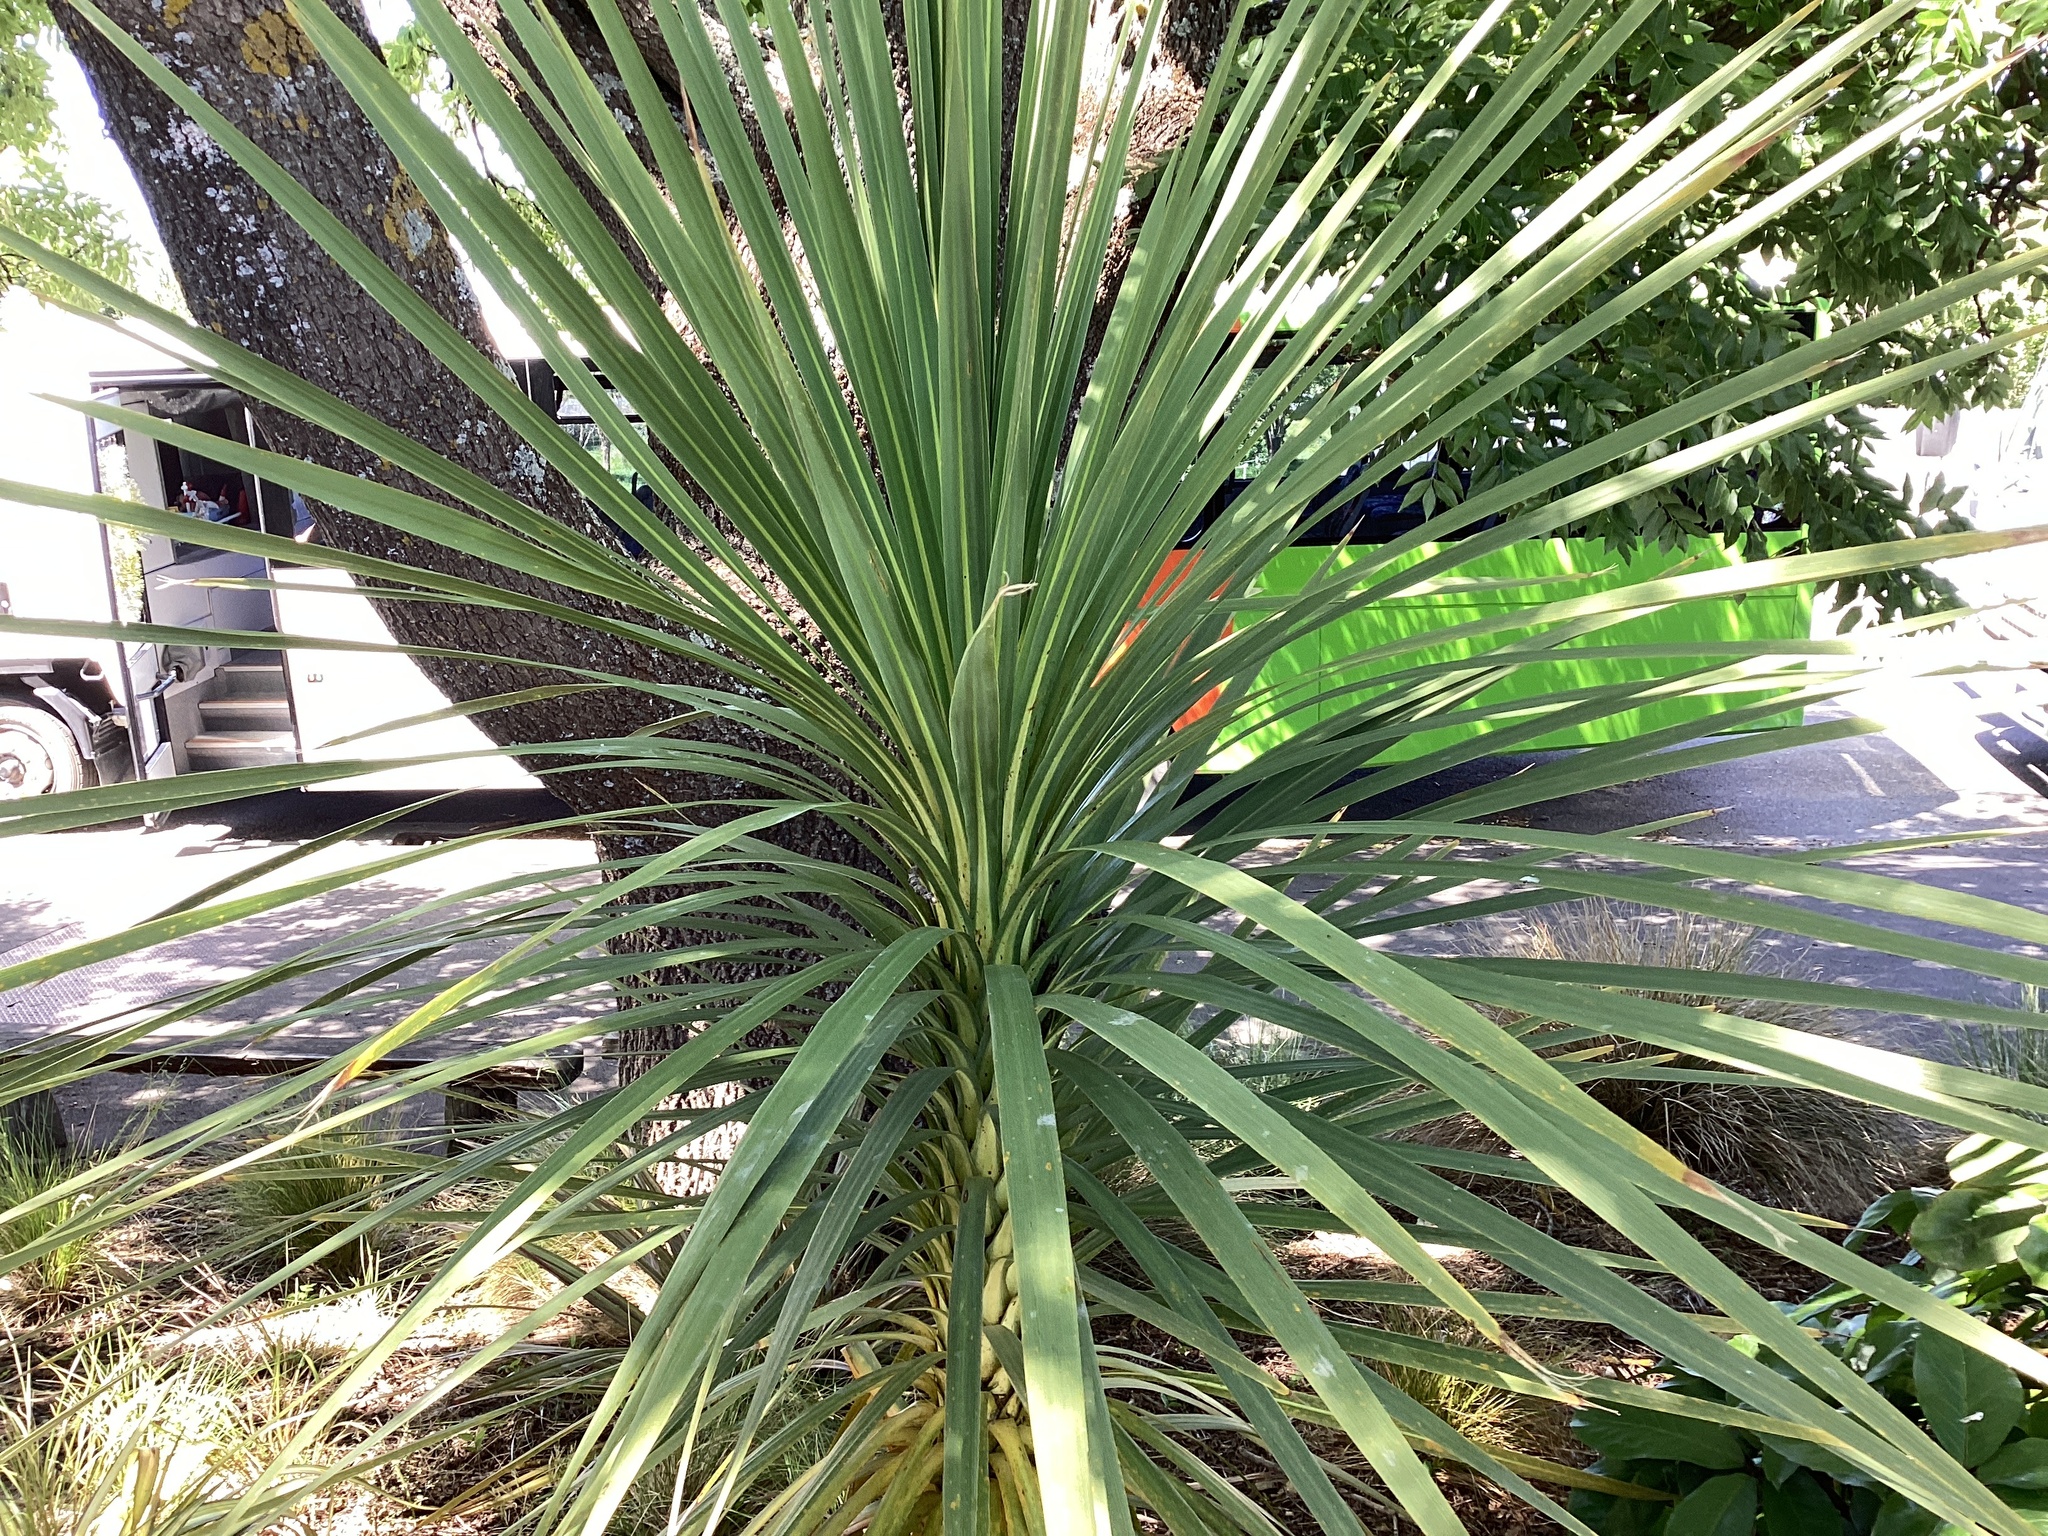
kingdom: Plantae
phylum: Tracheophyta
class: Liliopsida
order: Asparagales
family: Asparagaceae
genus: Cordyline
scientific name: Cordyline australis
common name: Cabbage-palm
